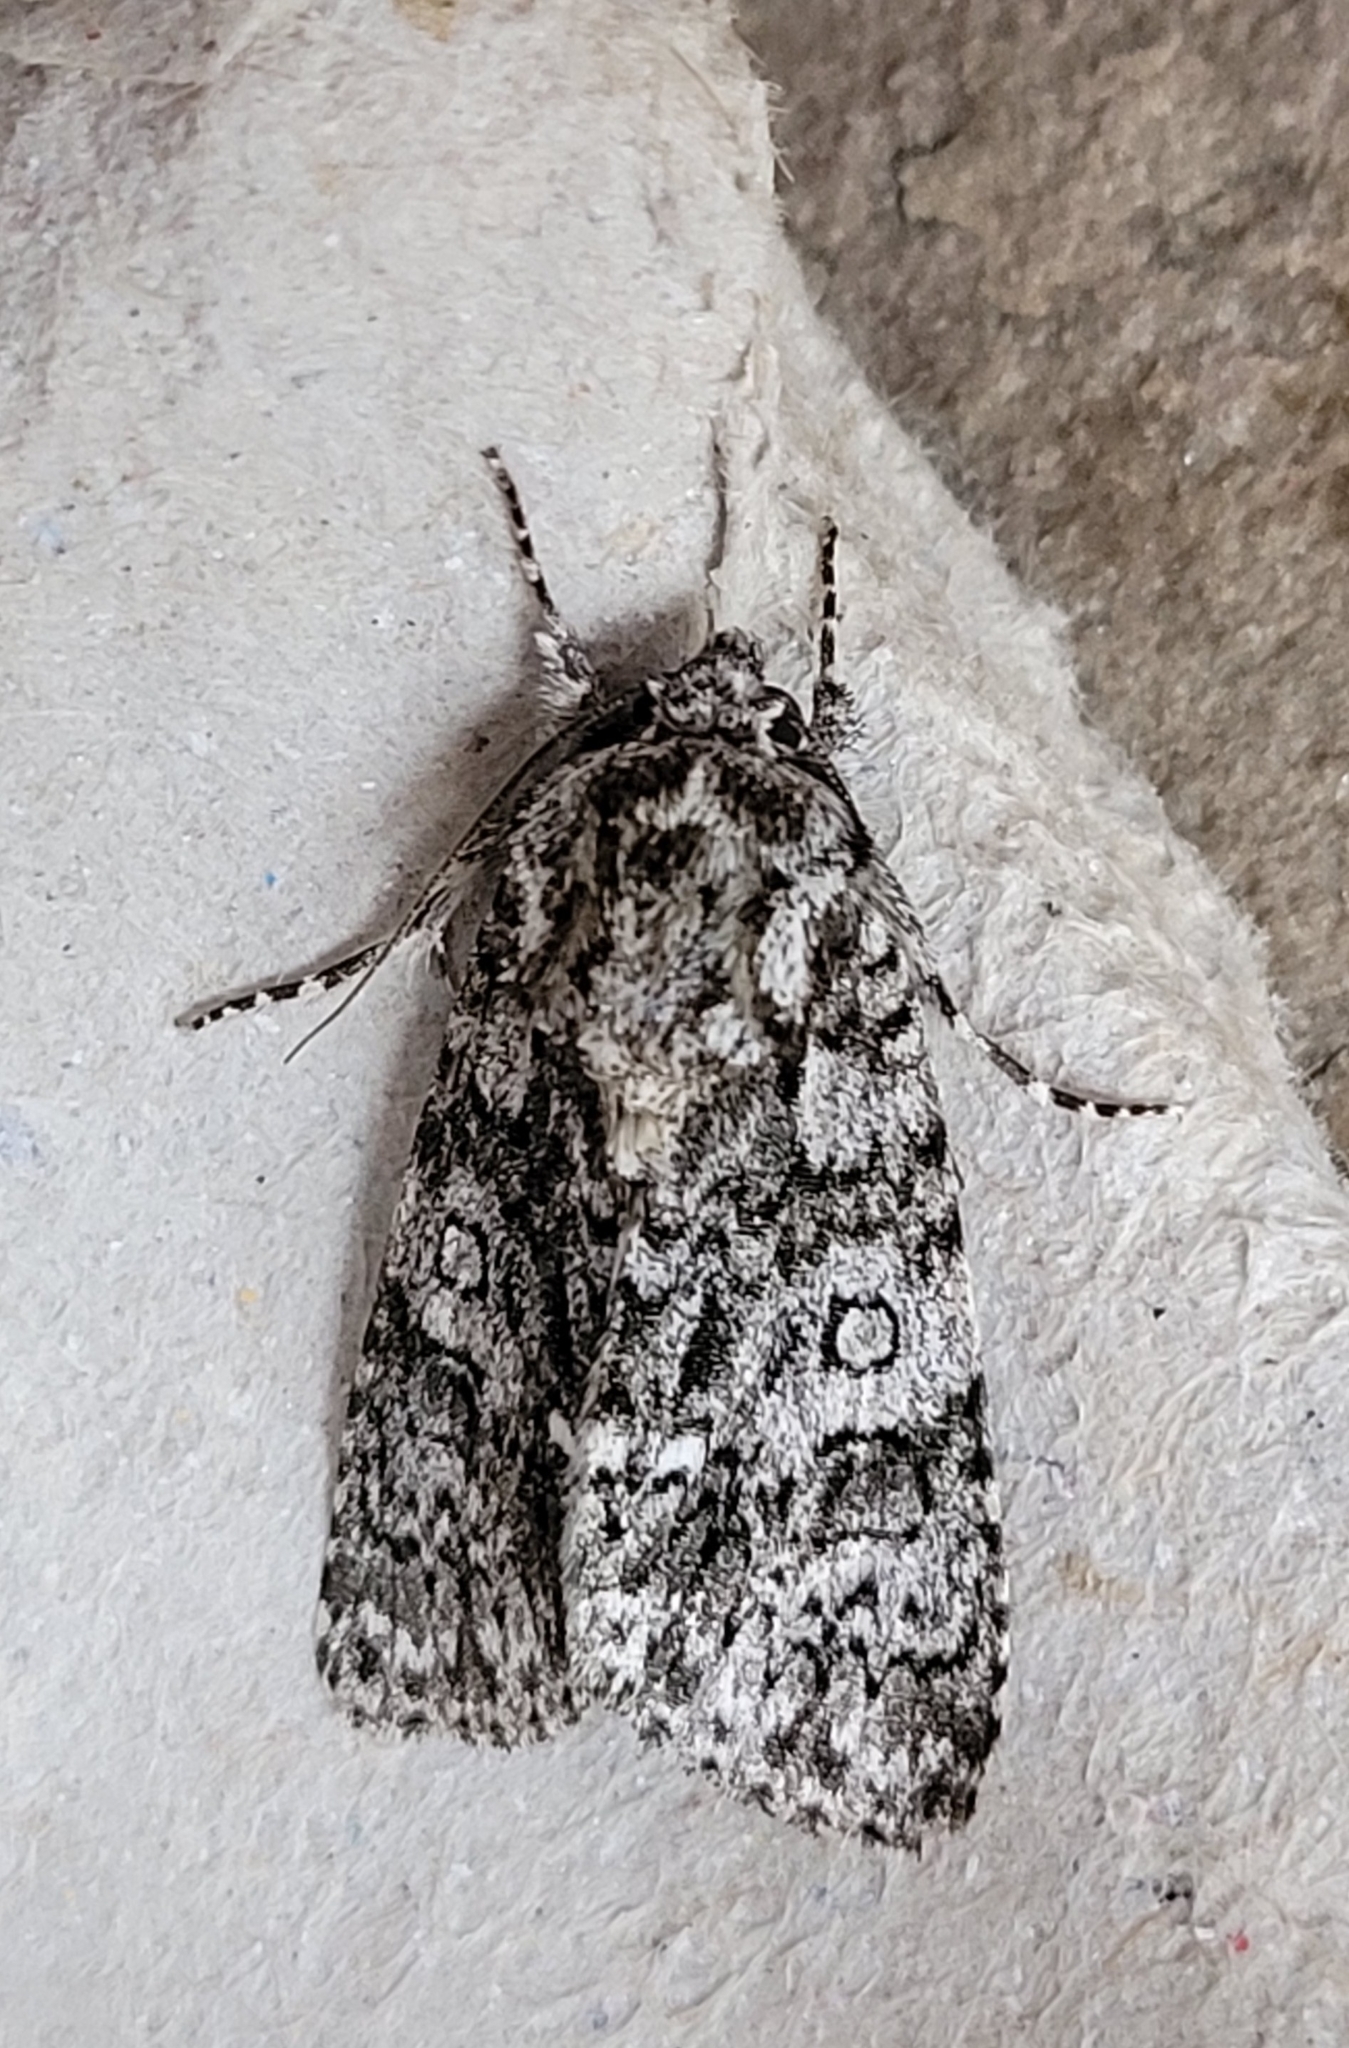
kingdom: Animalia
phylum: Arthropoda
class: Insecta
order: Lepidoptera
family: Noctuidae
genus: Acronicta
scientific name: Acronicta rumicis
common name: Knot grass
